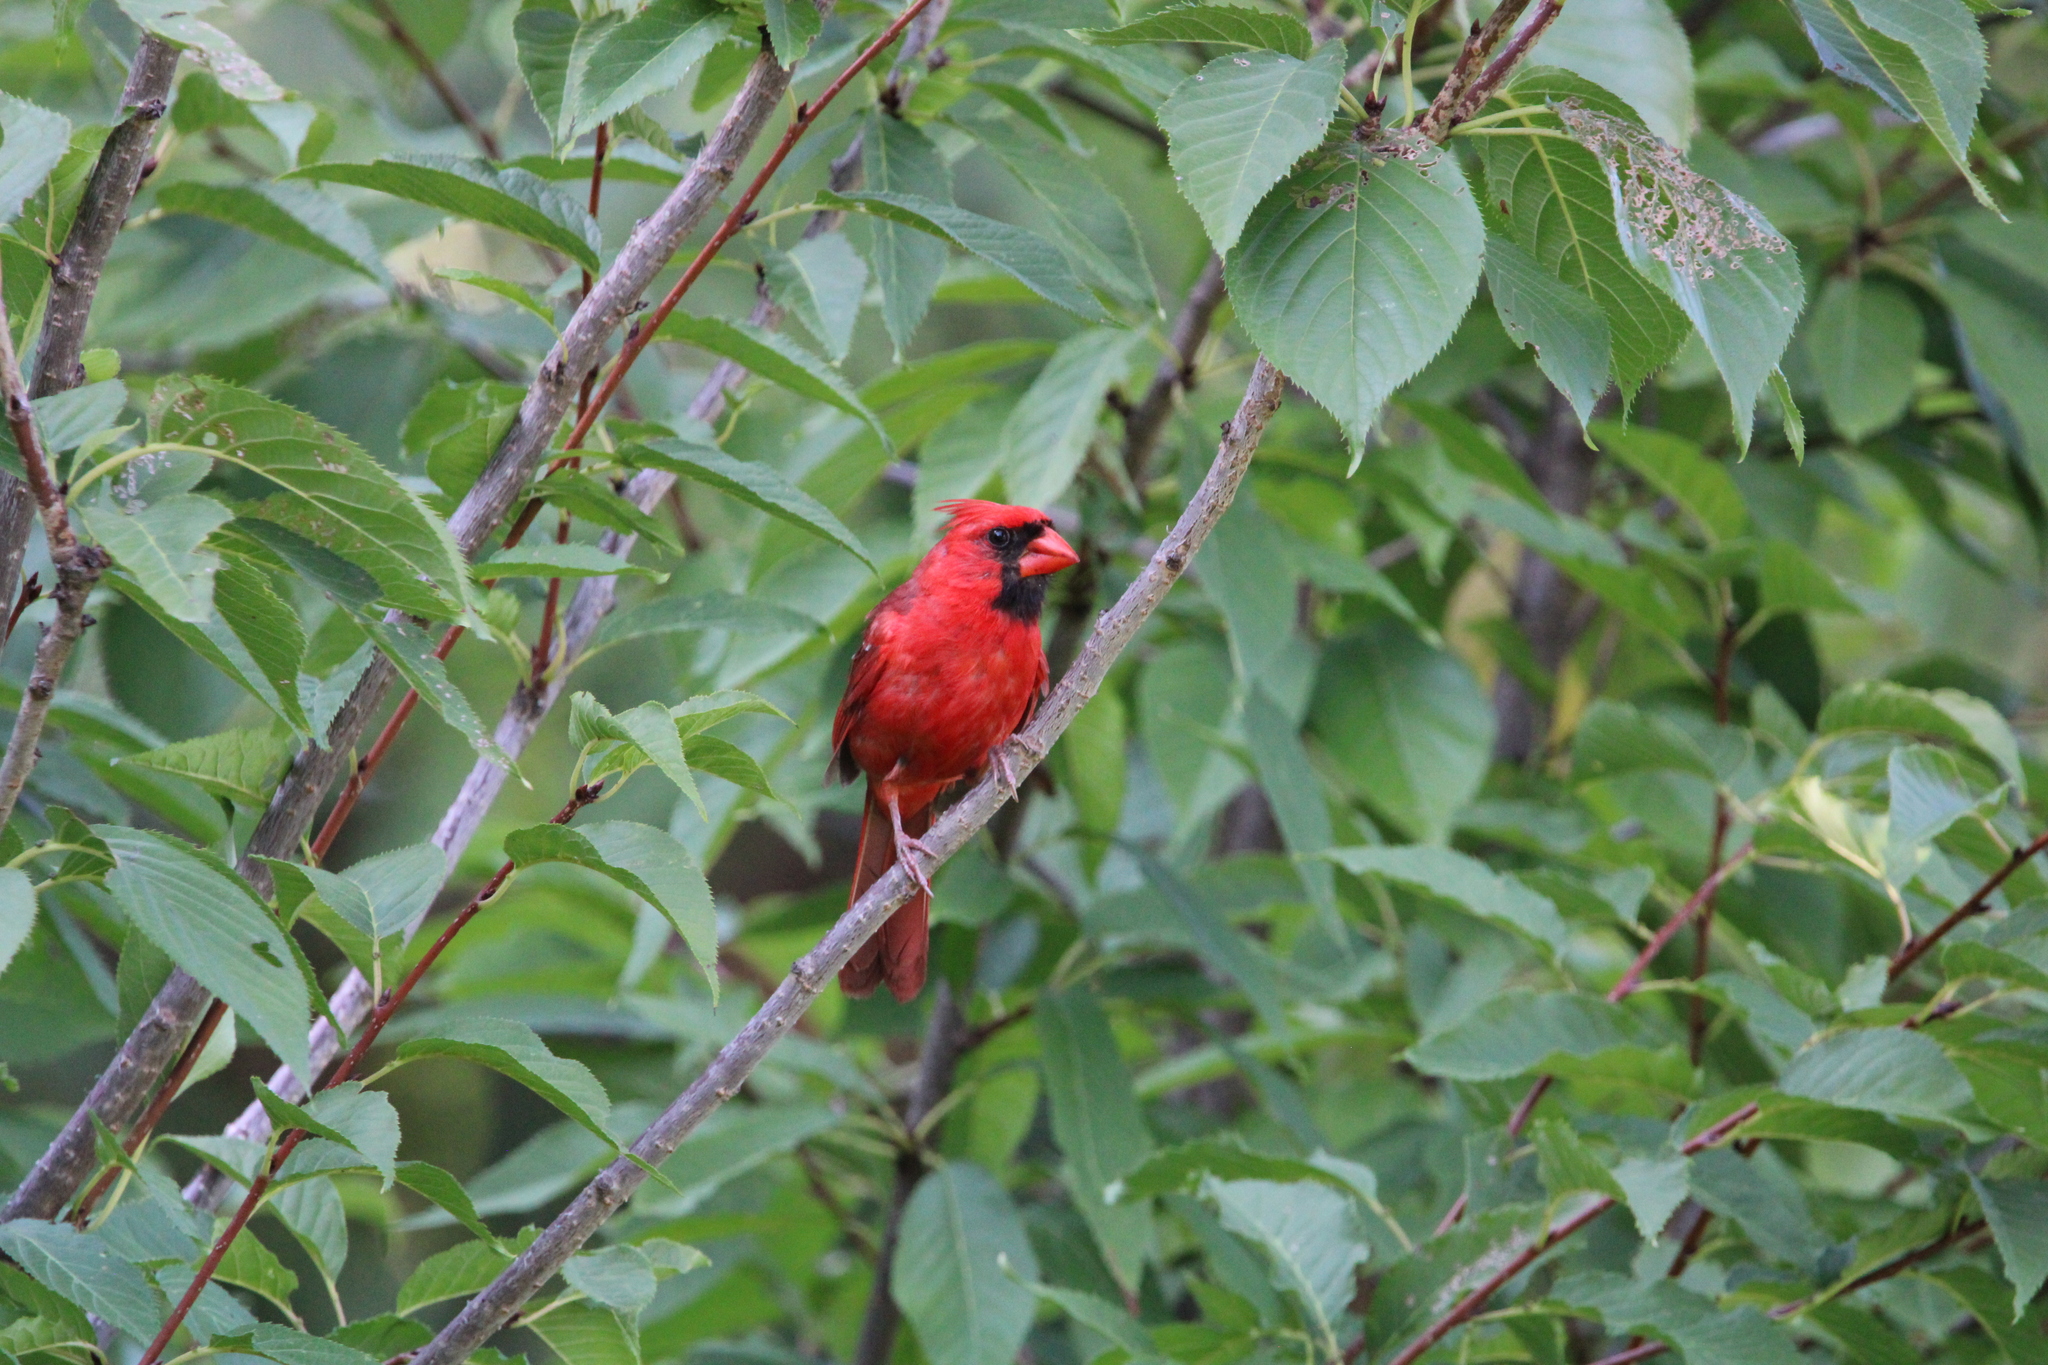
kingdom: Animalia
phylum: Chordata
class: Aves
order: Passeriformes
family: Cardinalidae
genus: Cardinalis
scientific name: Cardinalis cardinalis
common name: Northern cardinal
